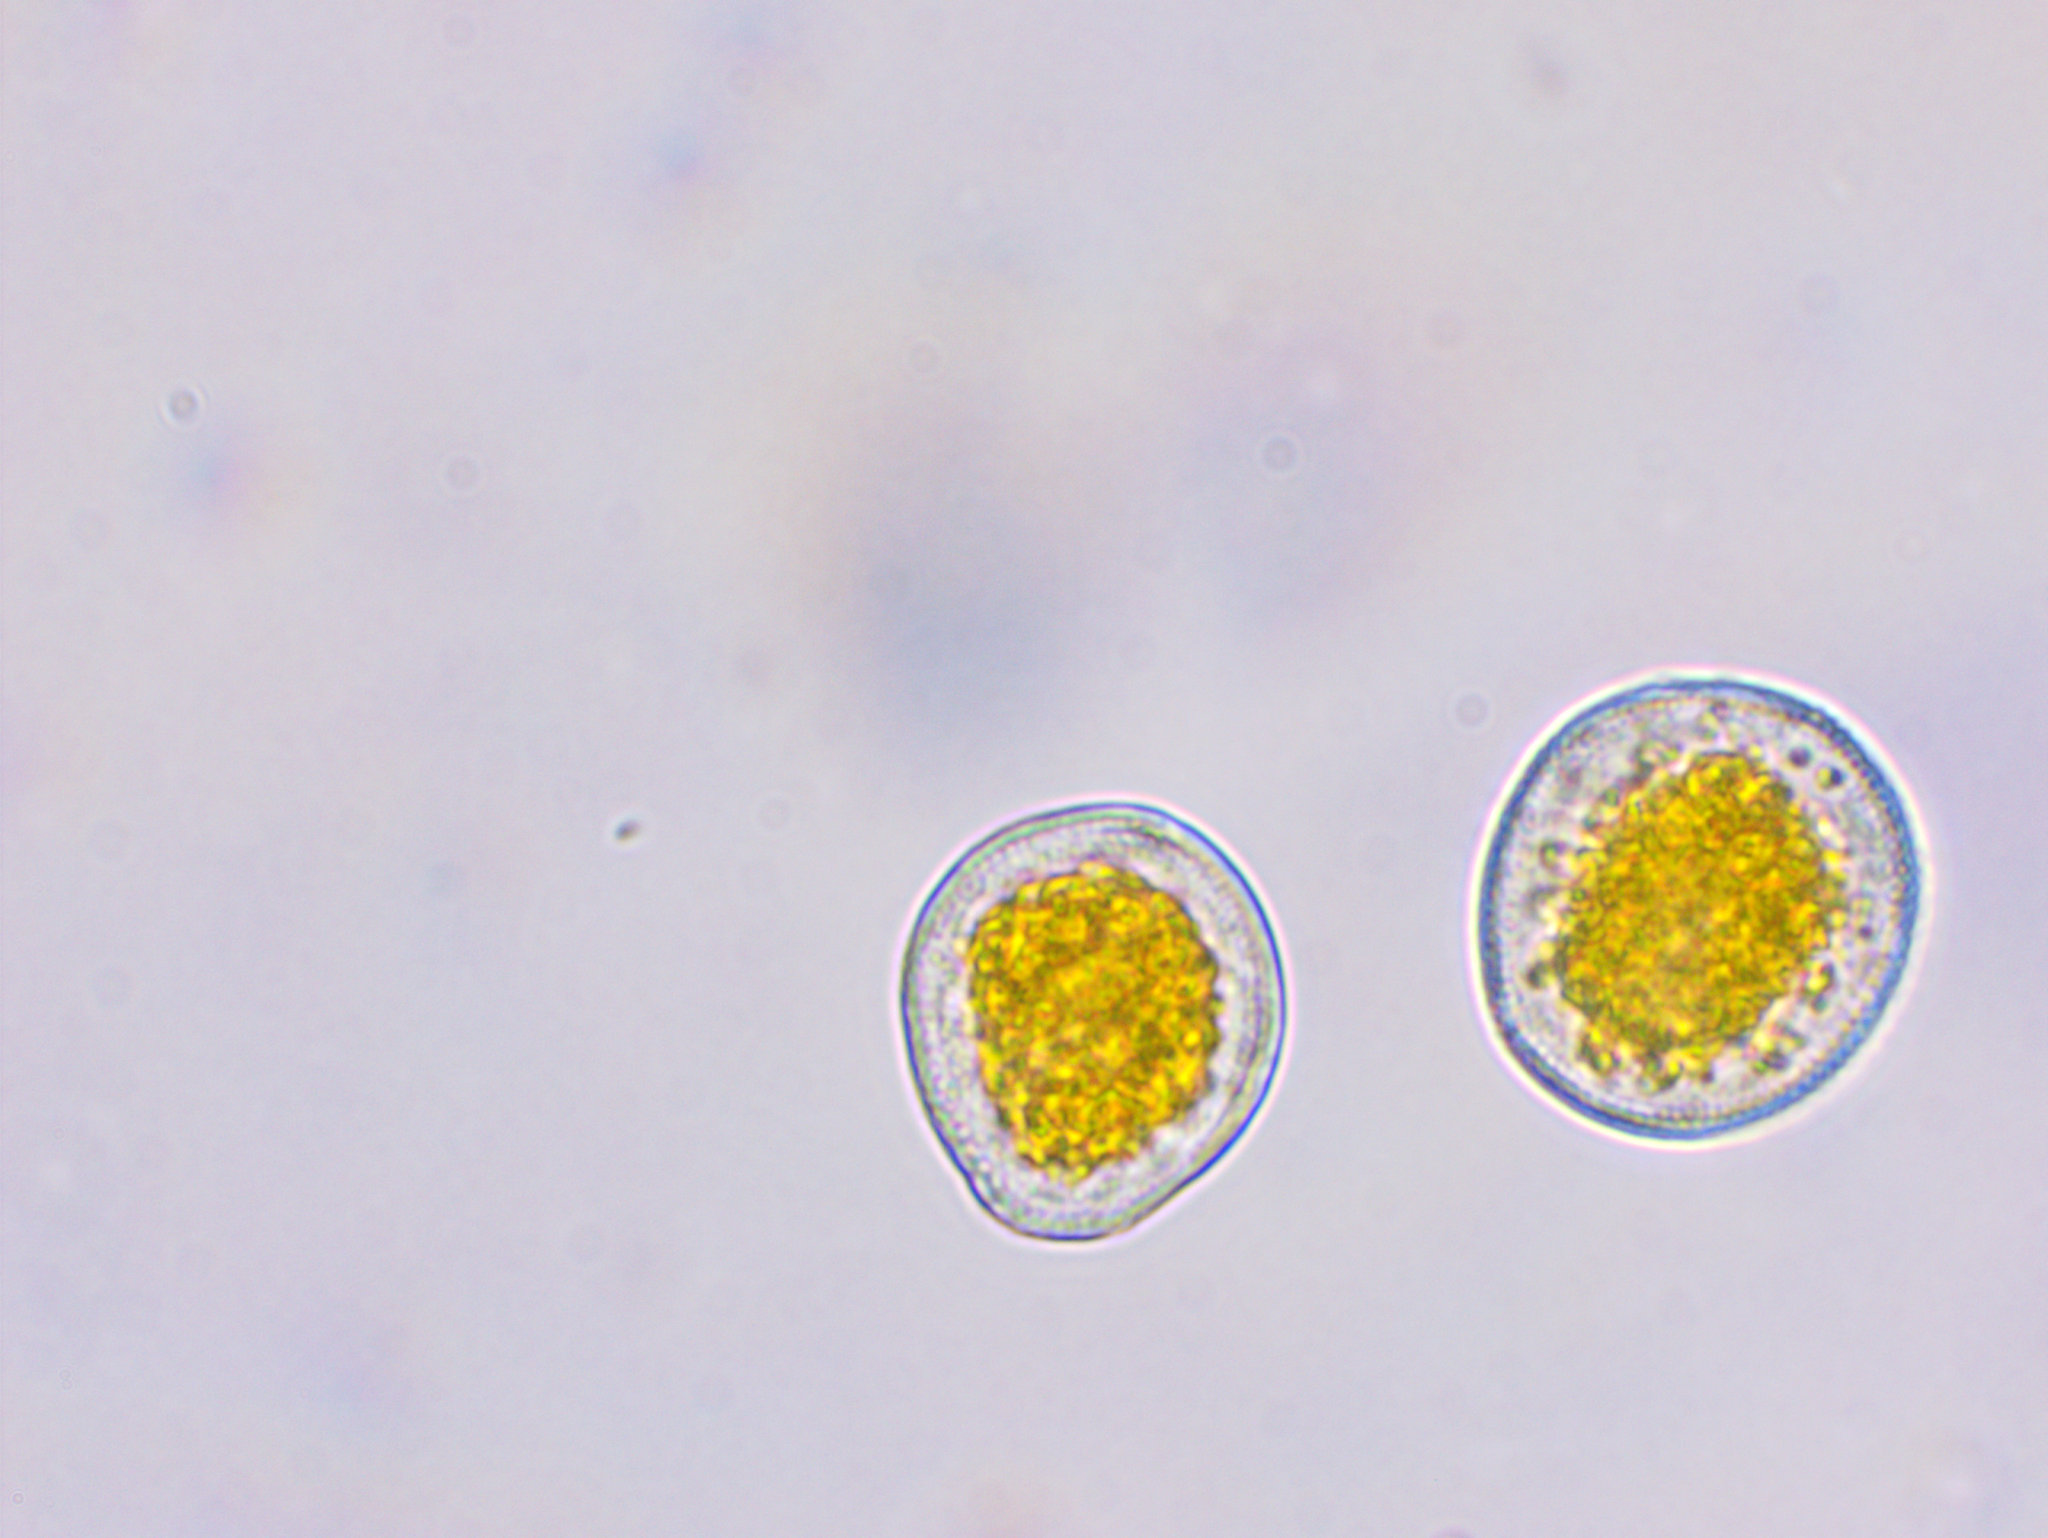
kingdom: Fungi
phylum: Basidiomycota
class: Pucciniomycetes
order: Pucciniales
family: Pucciniaceae
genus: Puccinia
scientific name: Puccinia coronata
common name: Crown rust
